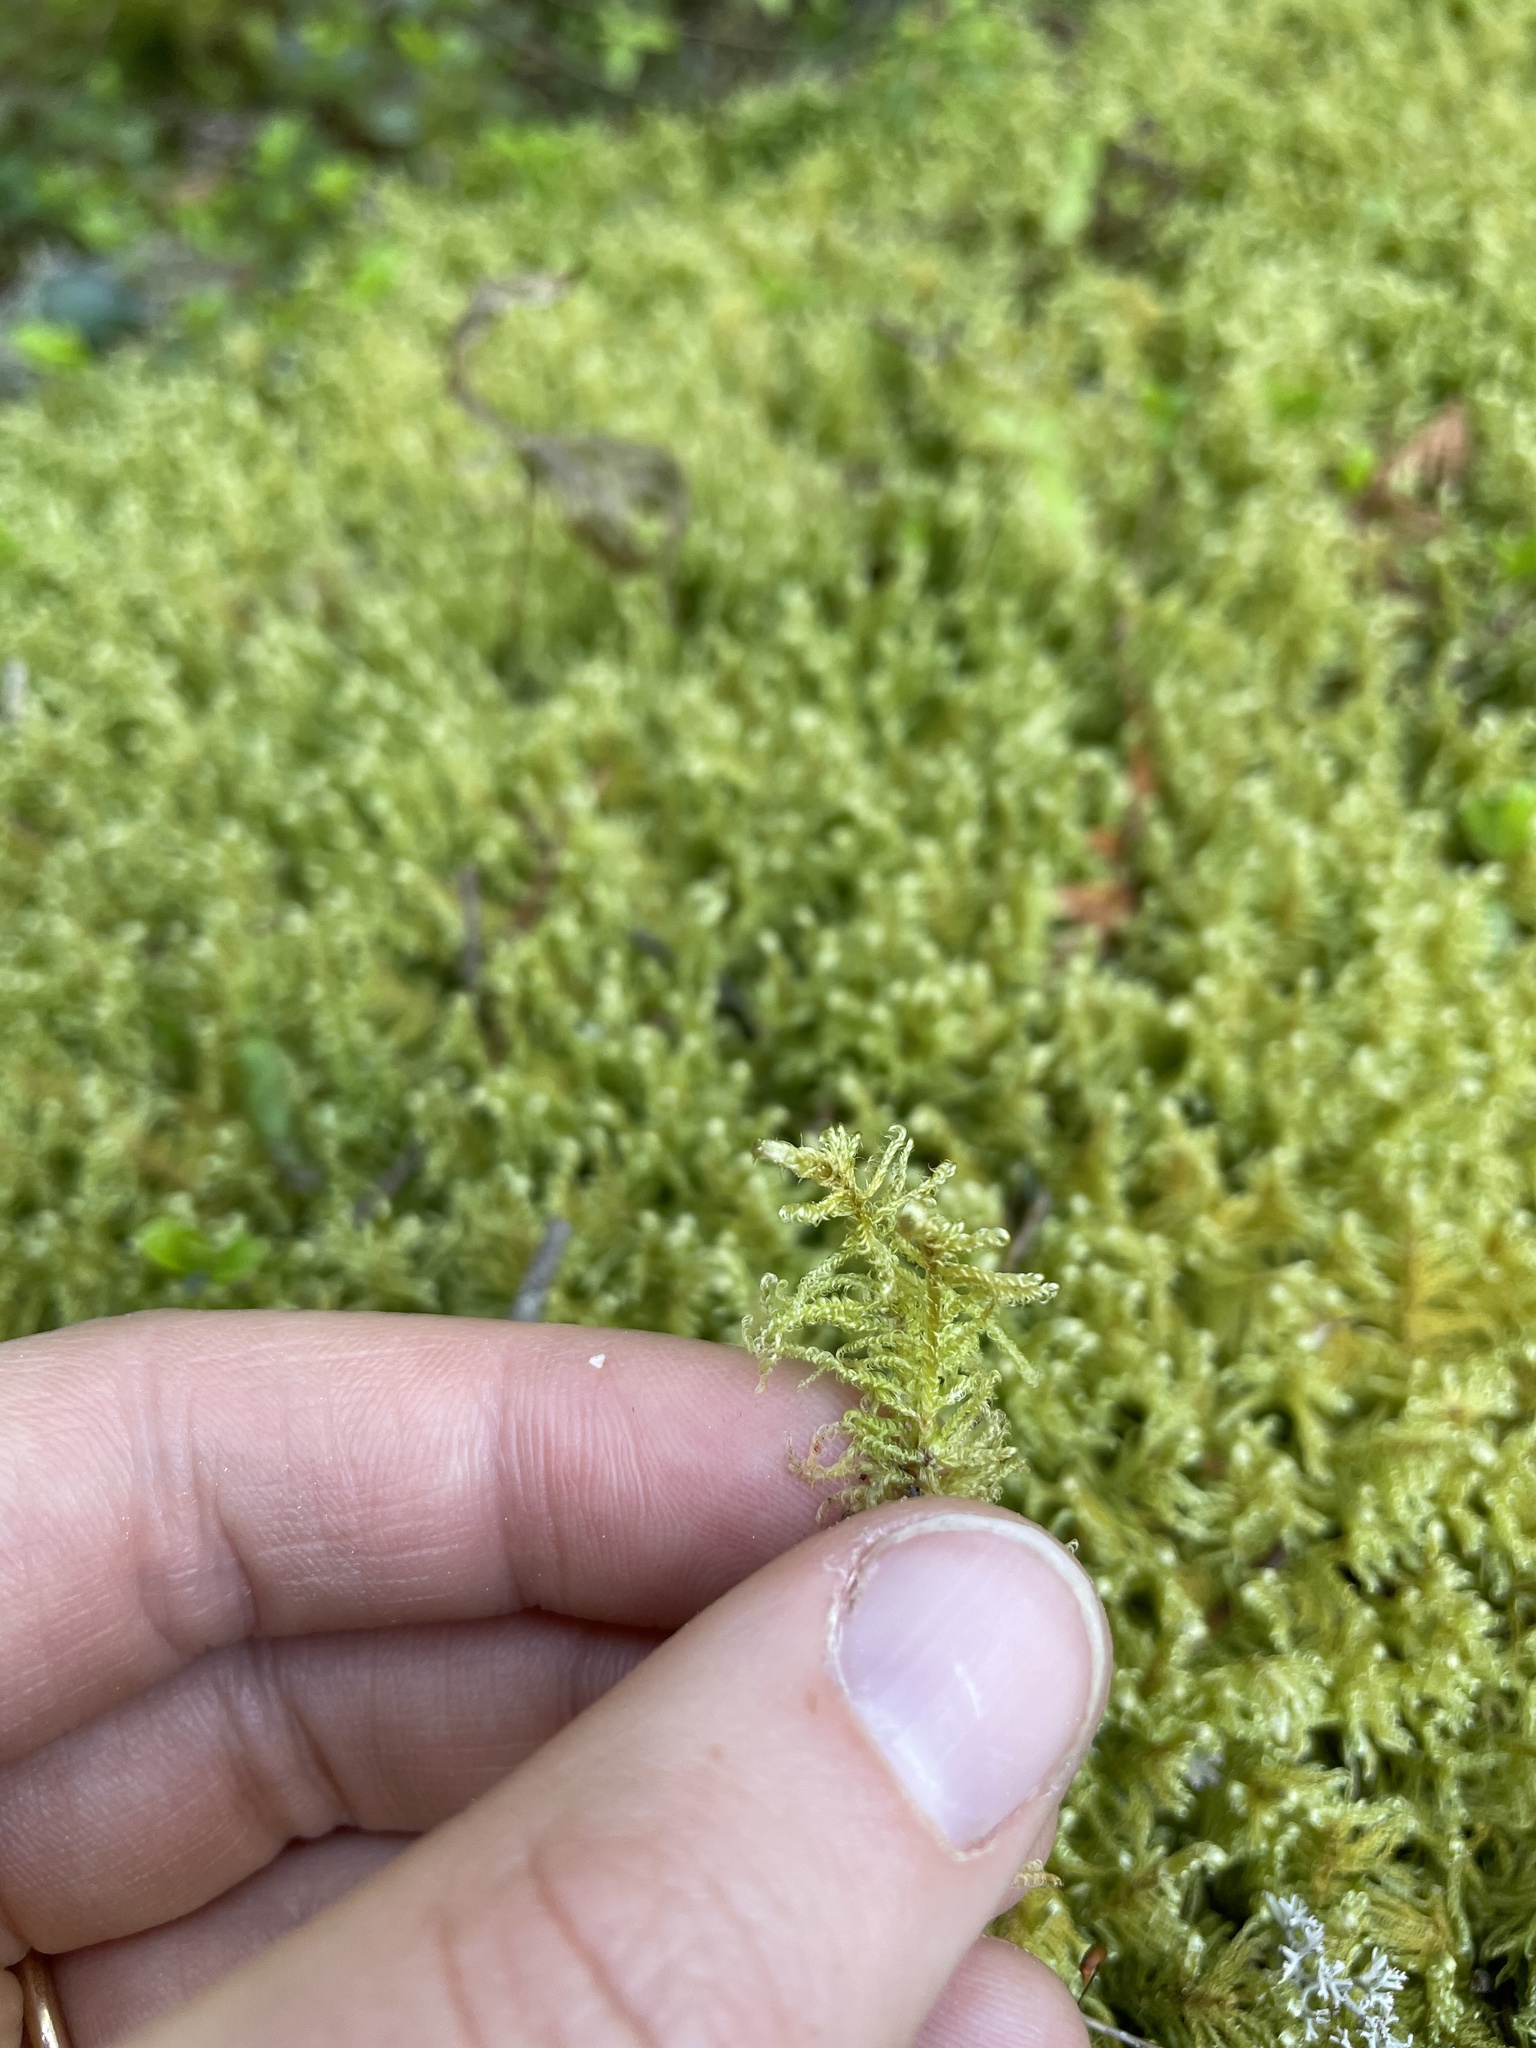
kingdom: Plantae
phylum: Bryophyta
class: Bryopsida
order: Hypnales
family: Pylaisiaceae
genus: Ptilium
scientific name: Ptilium crista-castrensis
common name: Knight's plume moss
